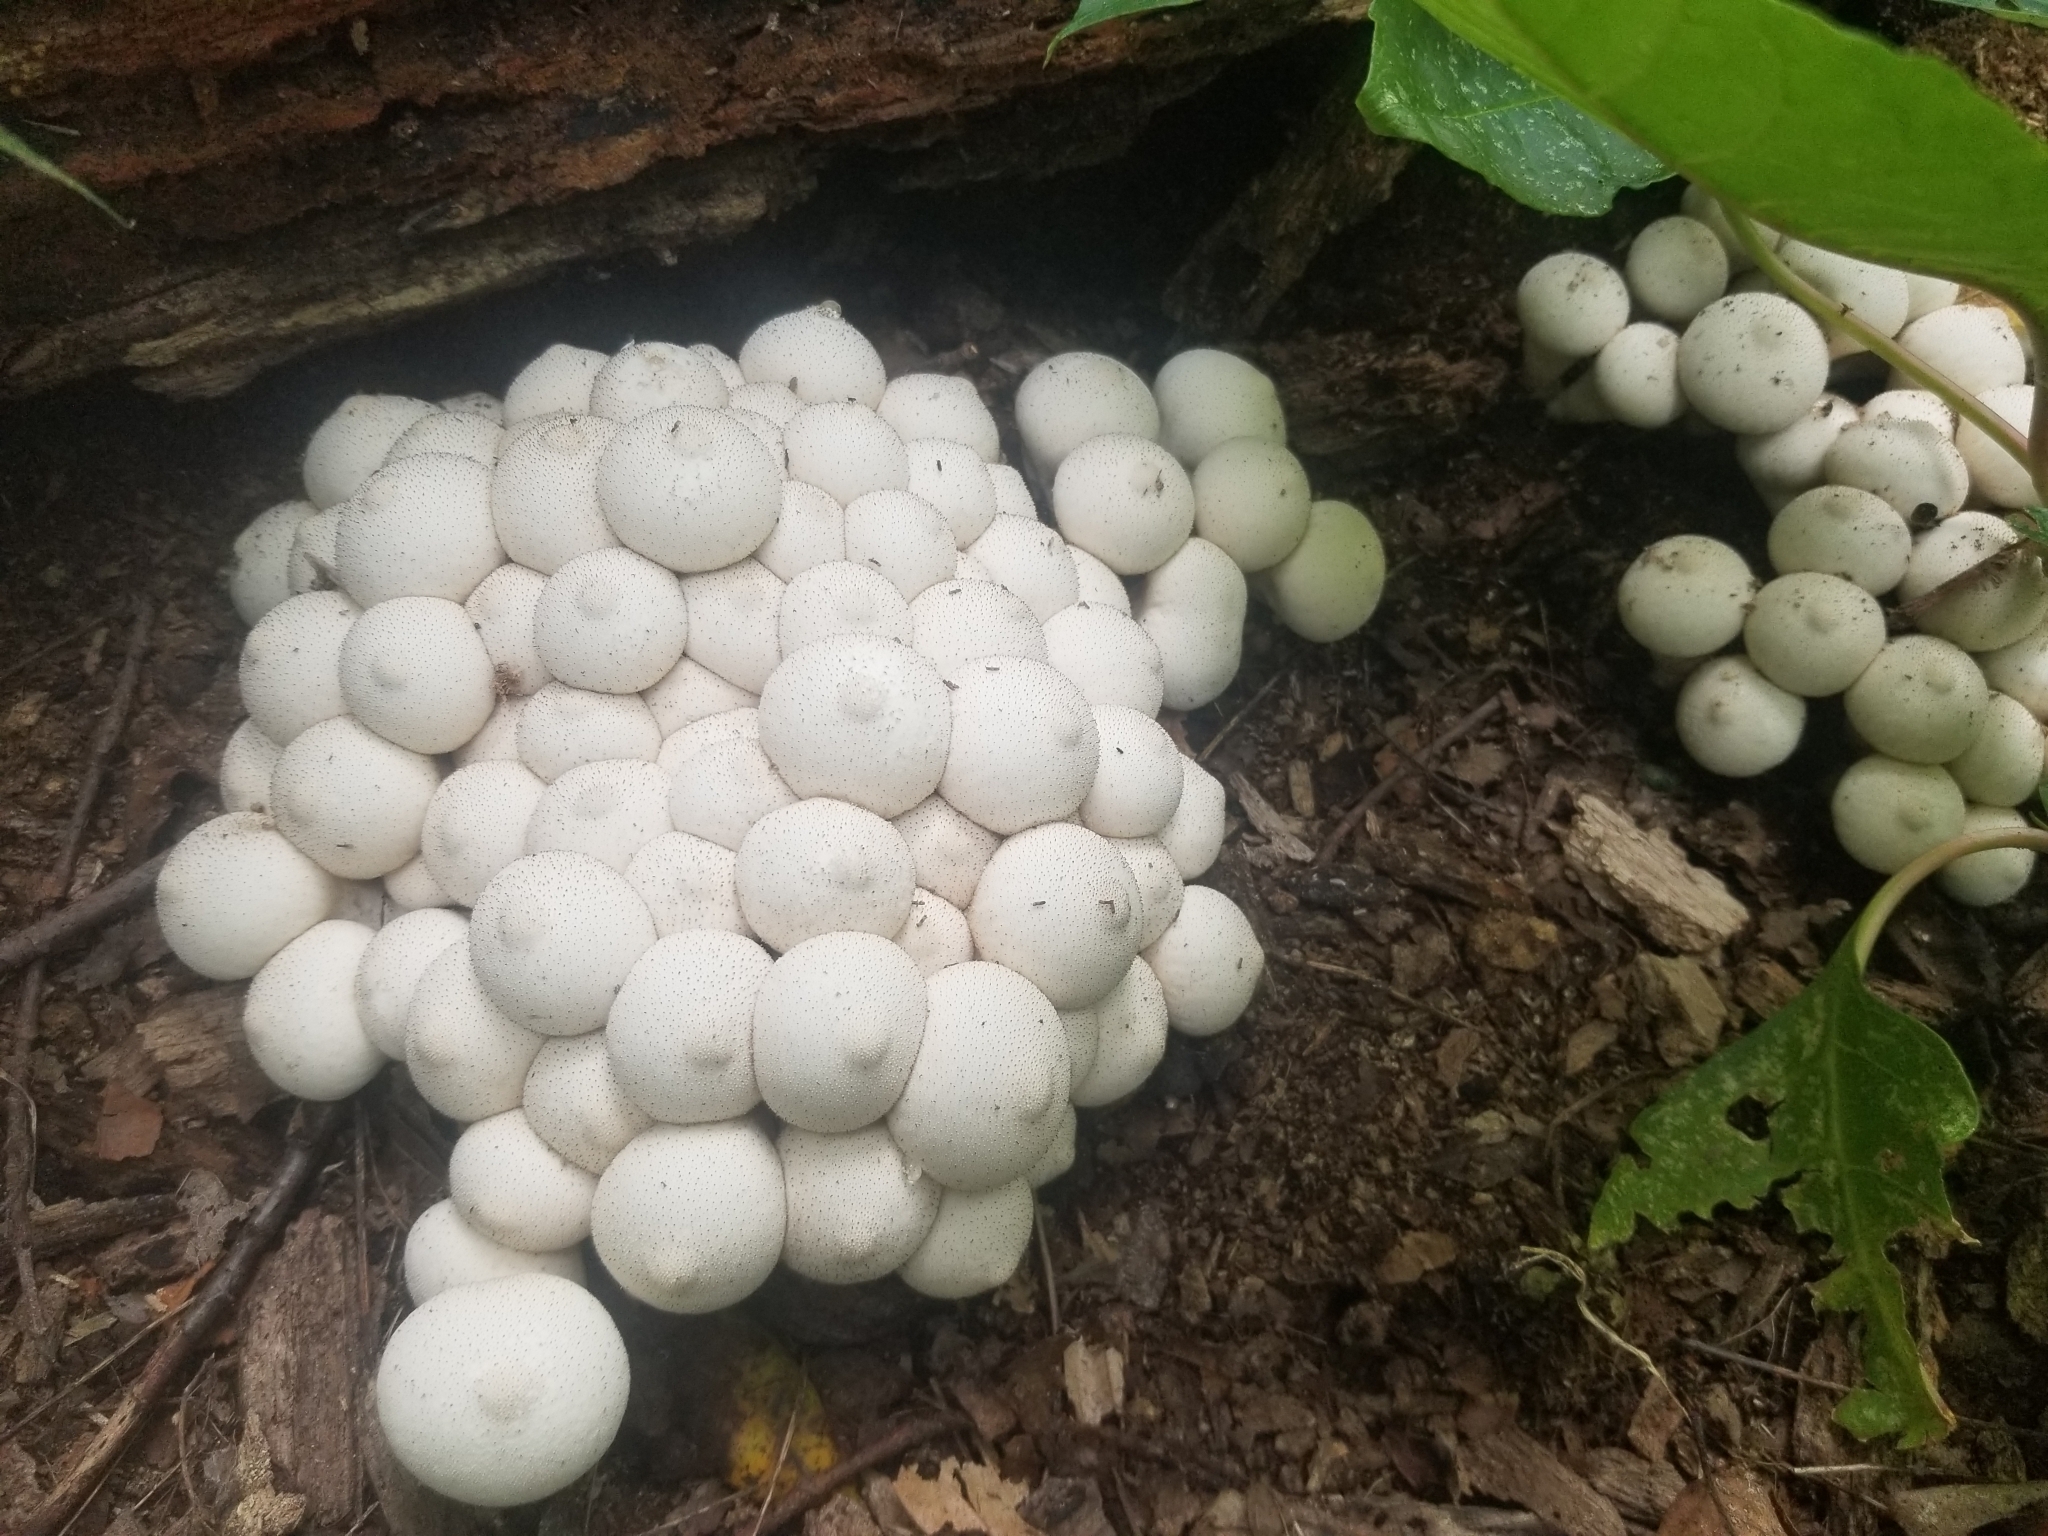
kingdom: Fungi
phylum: Basidiomycota
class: Agaricomycetes
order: Agaricales
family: Lycoperdaceae
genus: Lycoperdon
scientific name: Lycoperdon perlatum
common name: Common puffball
